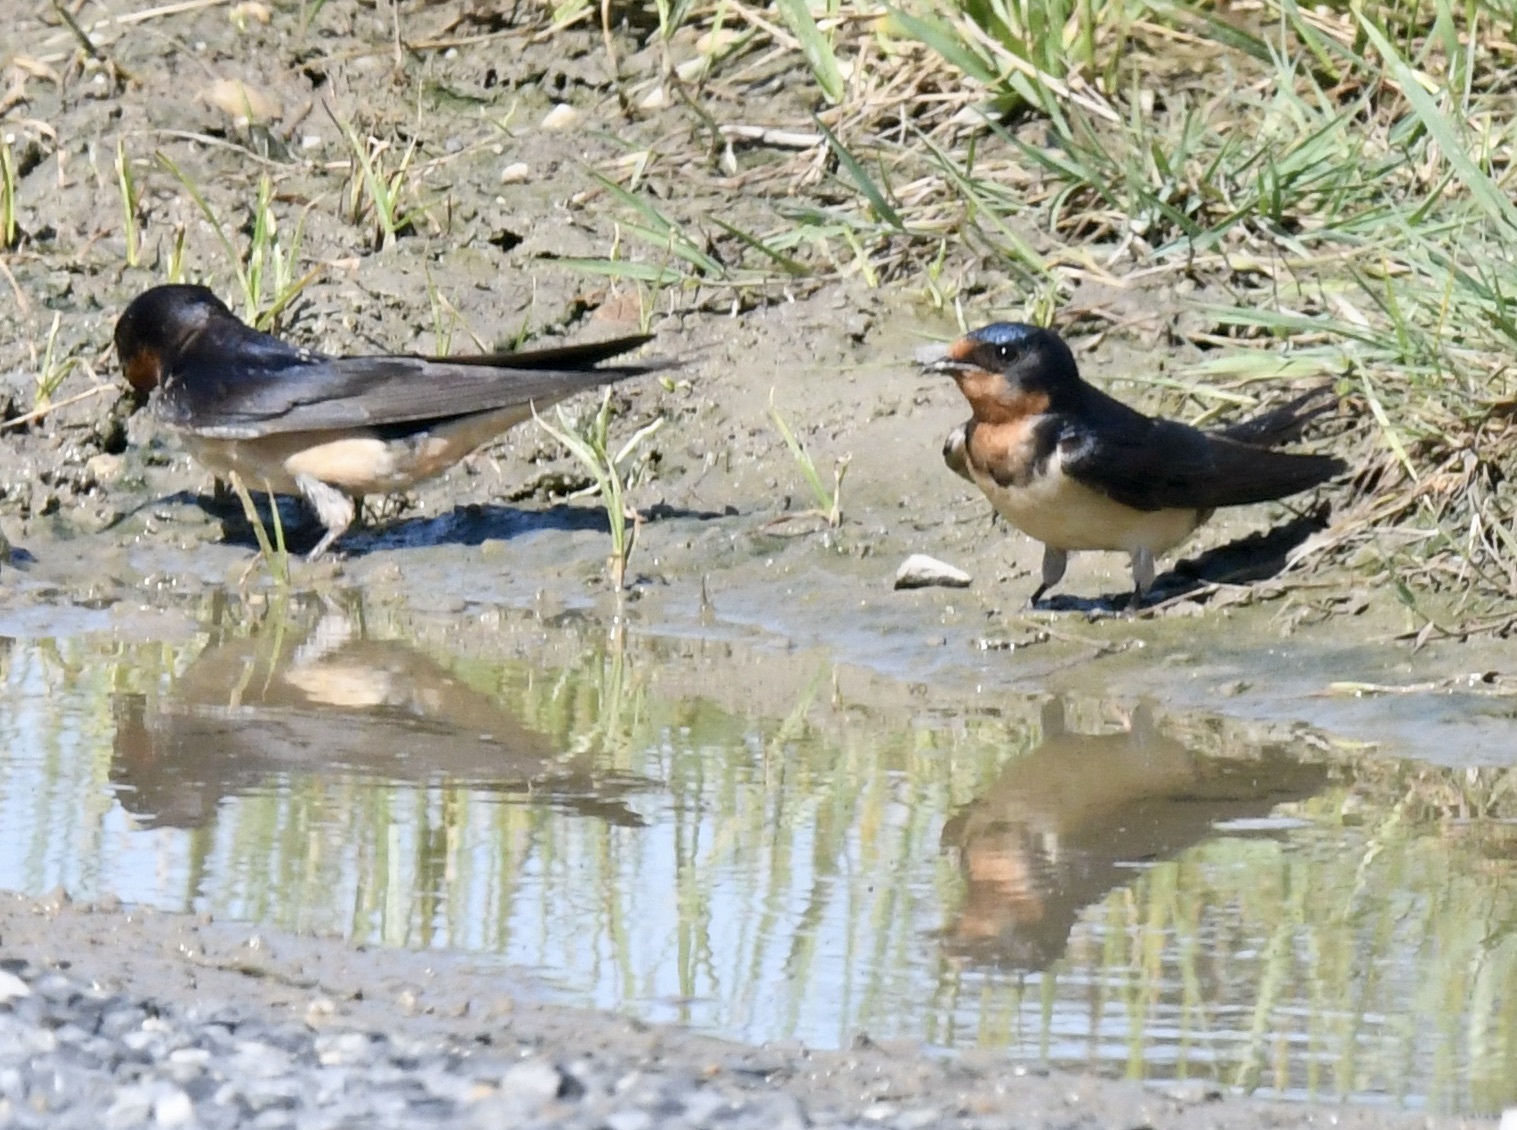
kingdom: Animalia
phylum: Chordata
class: Aves
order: Passeriformes
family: Hirundinidae
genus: Hirundo
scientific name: Hirundo rustica
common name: Barn swallow
